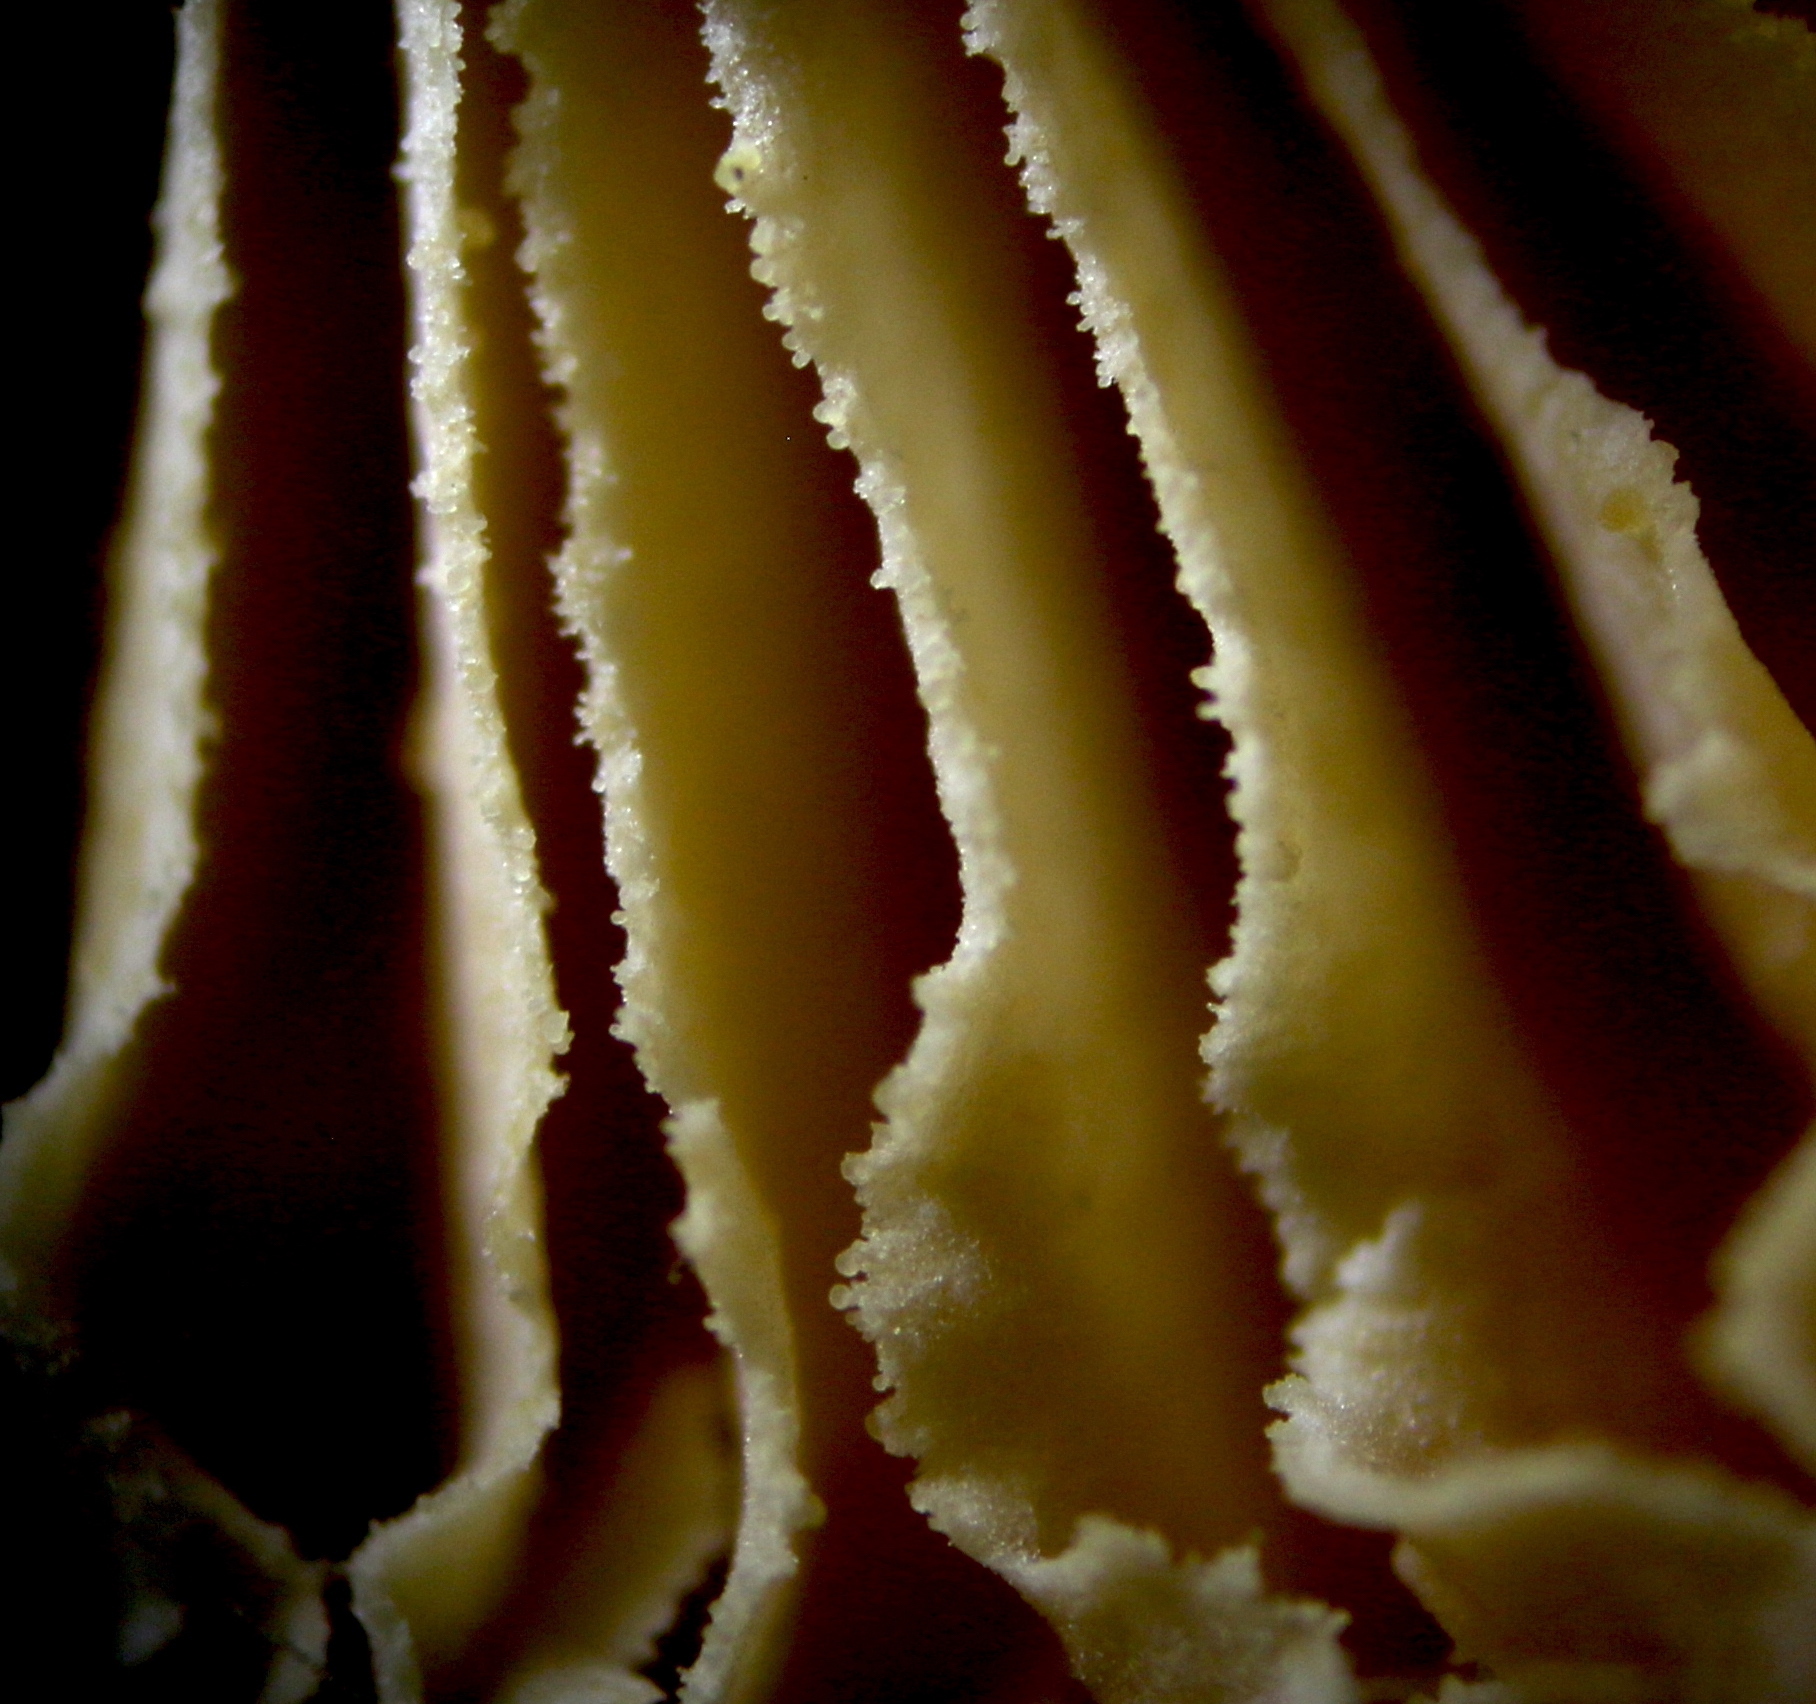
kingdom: Fungi
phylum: Basidiomycota
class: Agaricomycetes
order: Polyporales
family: Polyporaceae
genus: Lentinus
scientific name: Lentinus tigrinus
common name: Tiger sawgill
